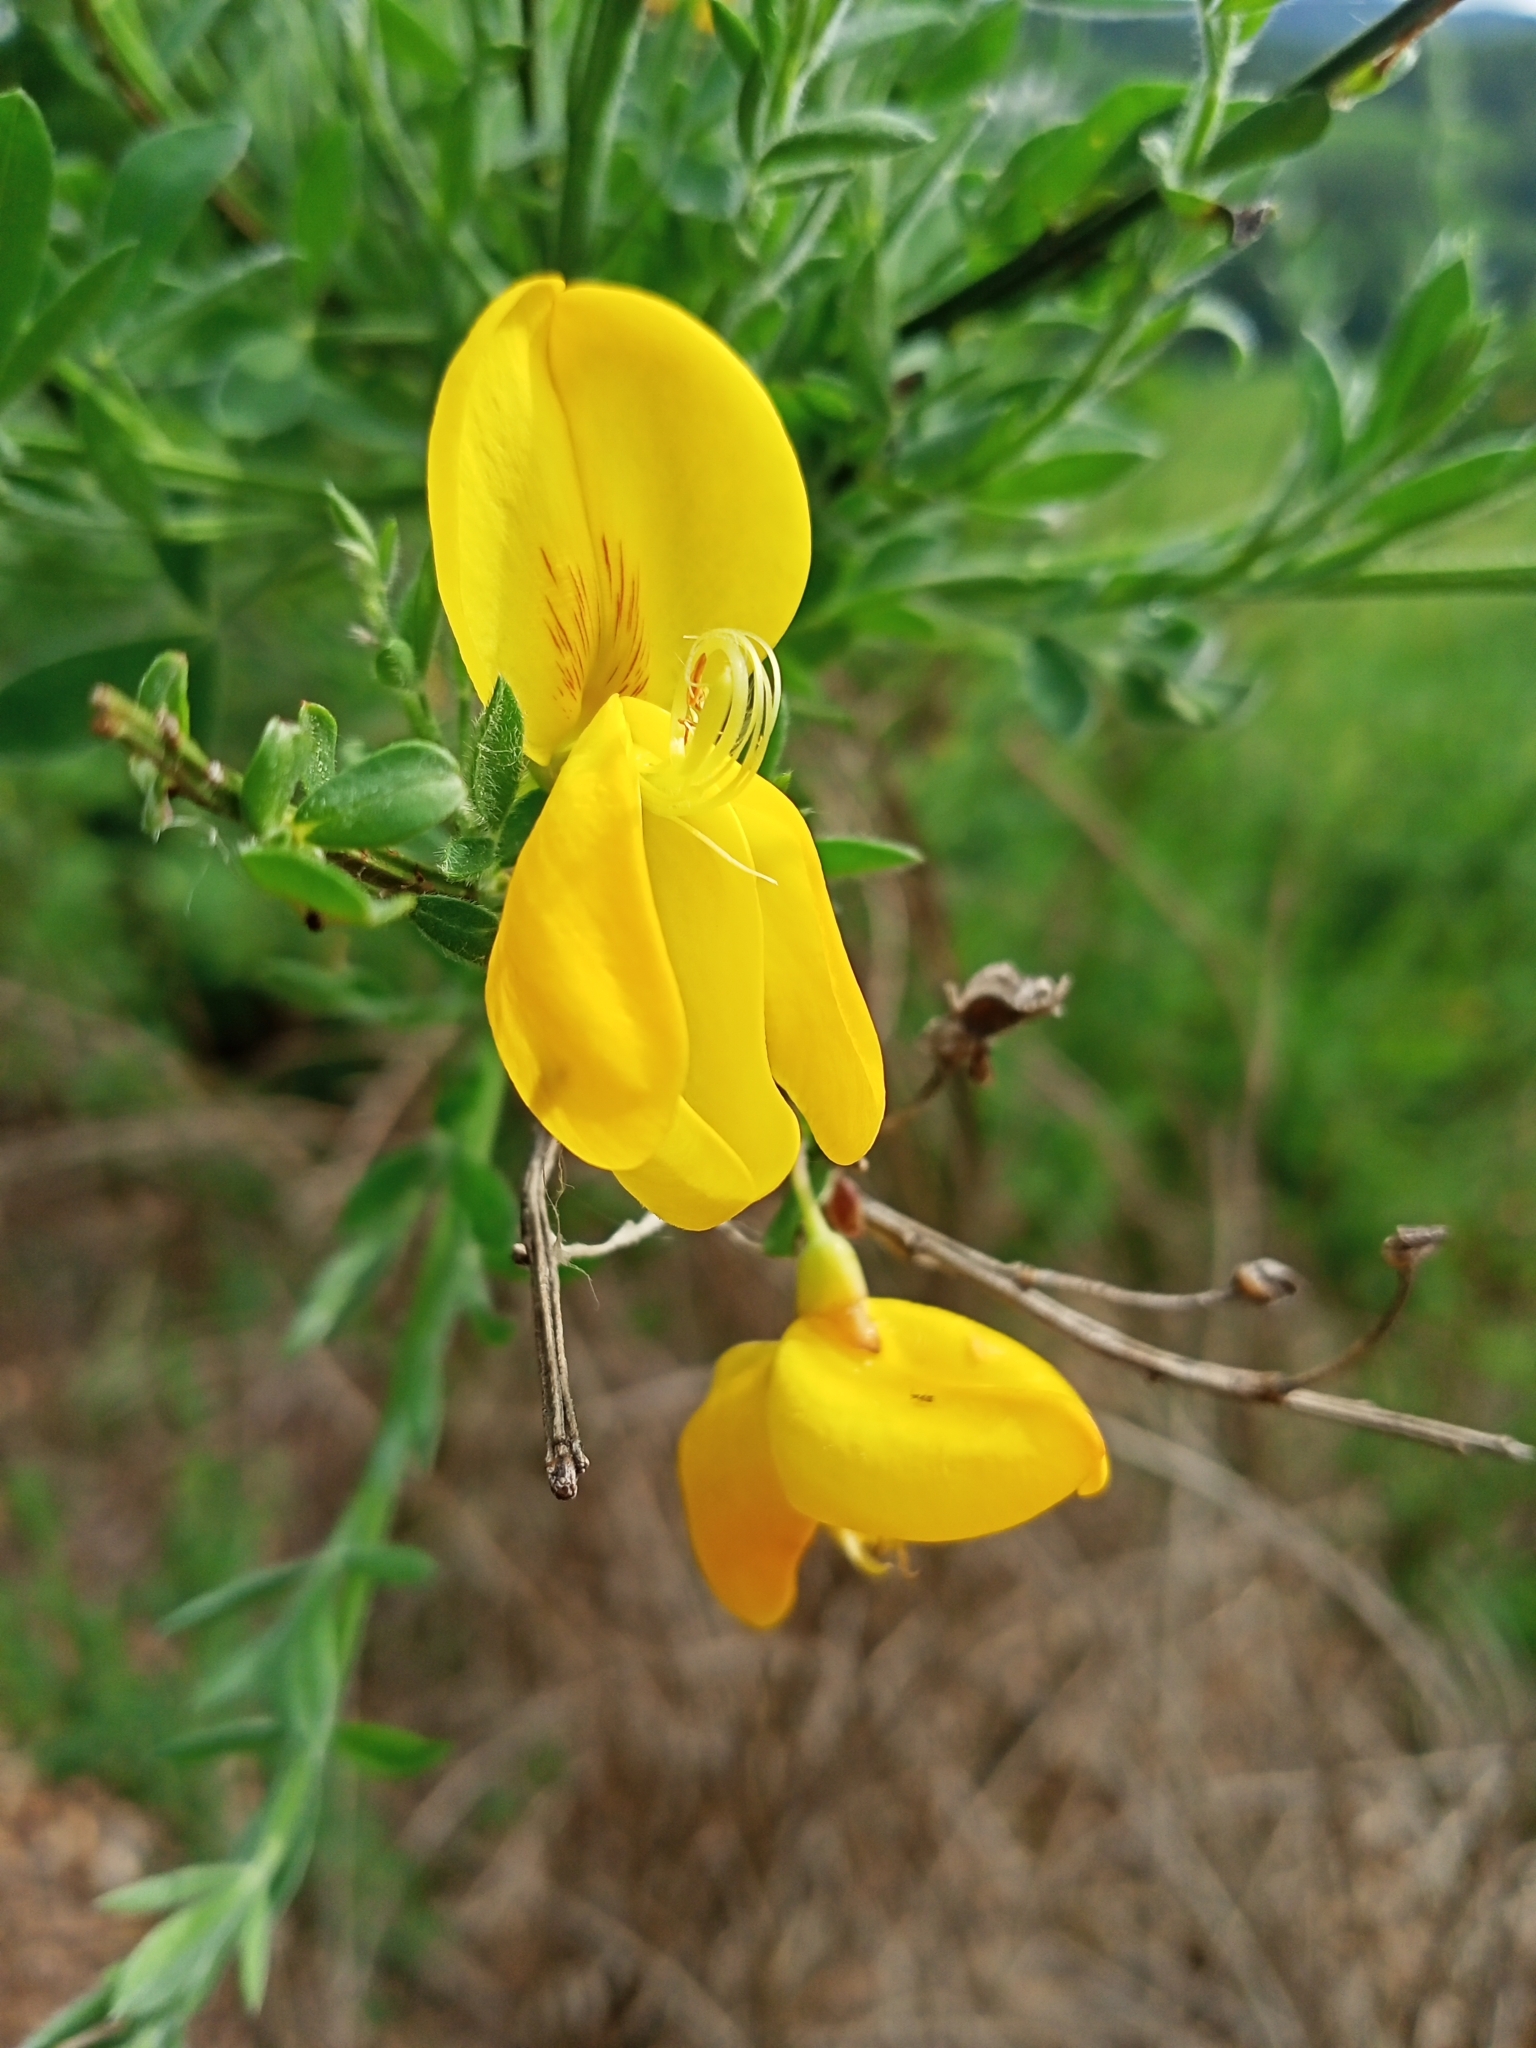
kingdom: Plantae
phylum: Tracheophyta
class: Magnoliopsida
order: Fabales
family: Fabaceae
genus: Cytisus
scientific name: Cytisus scoparius
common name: Scotch broom
